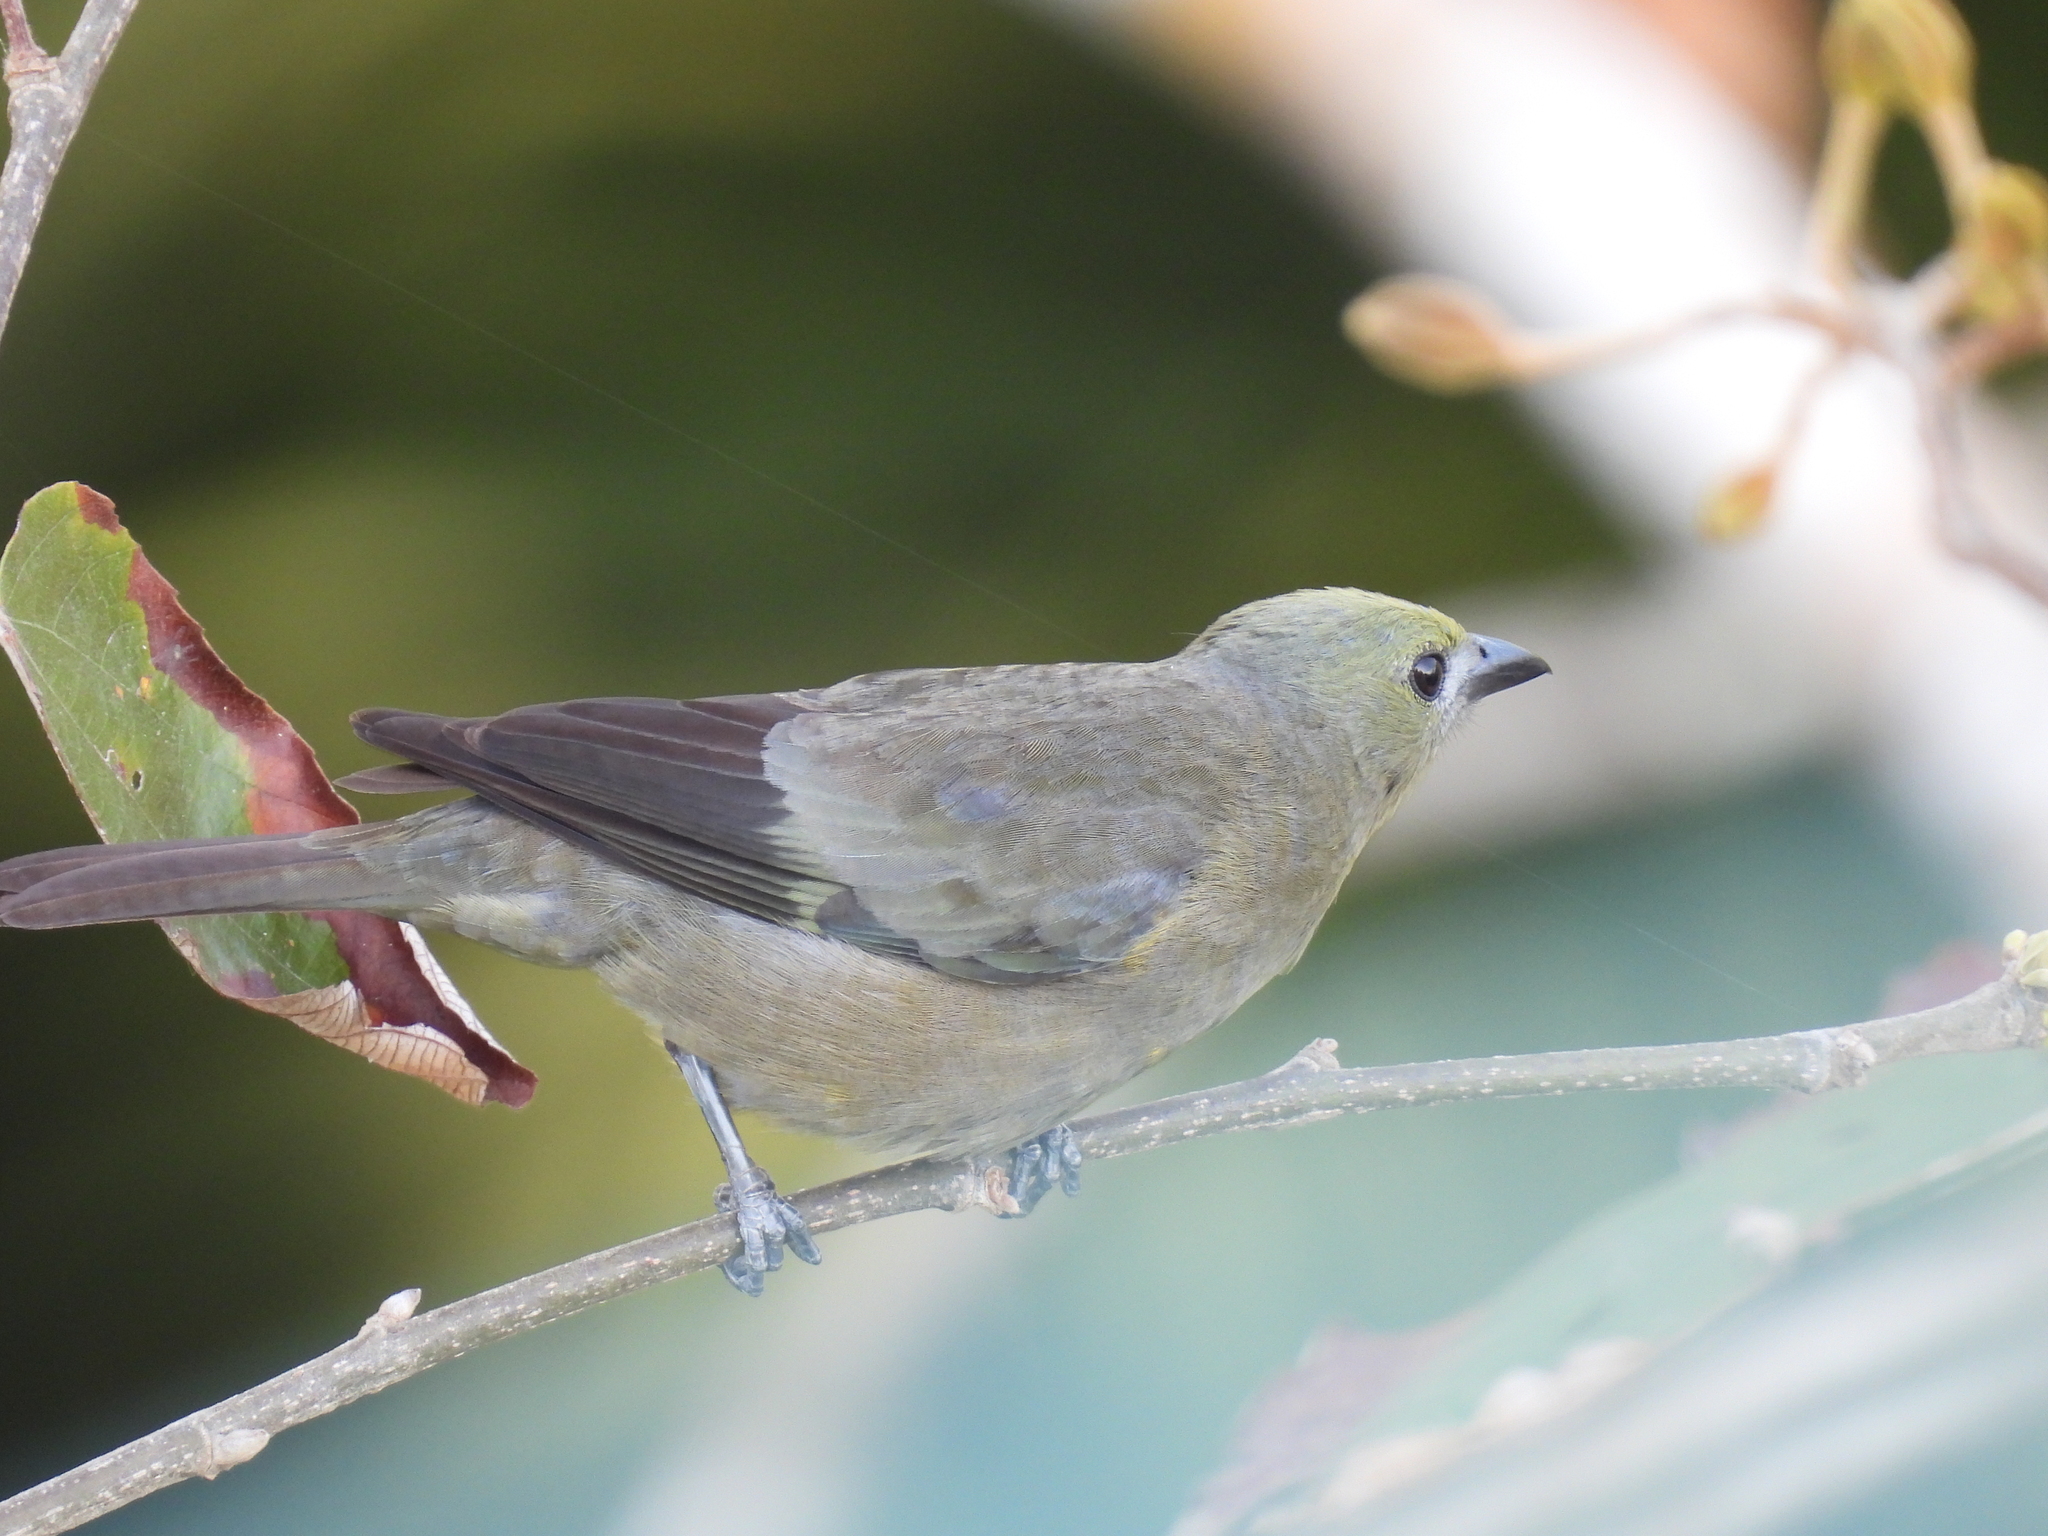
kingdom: Animalia
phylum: Chordata
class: Aves
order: Passeriformes
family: Thraupidae
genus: Thraupis
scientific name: Thraupis palmarum
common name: Palm tanager
